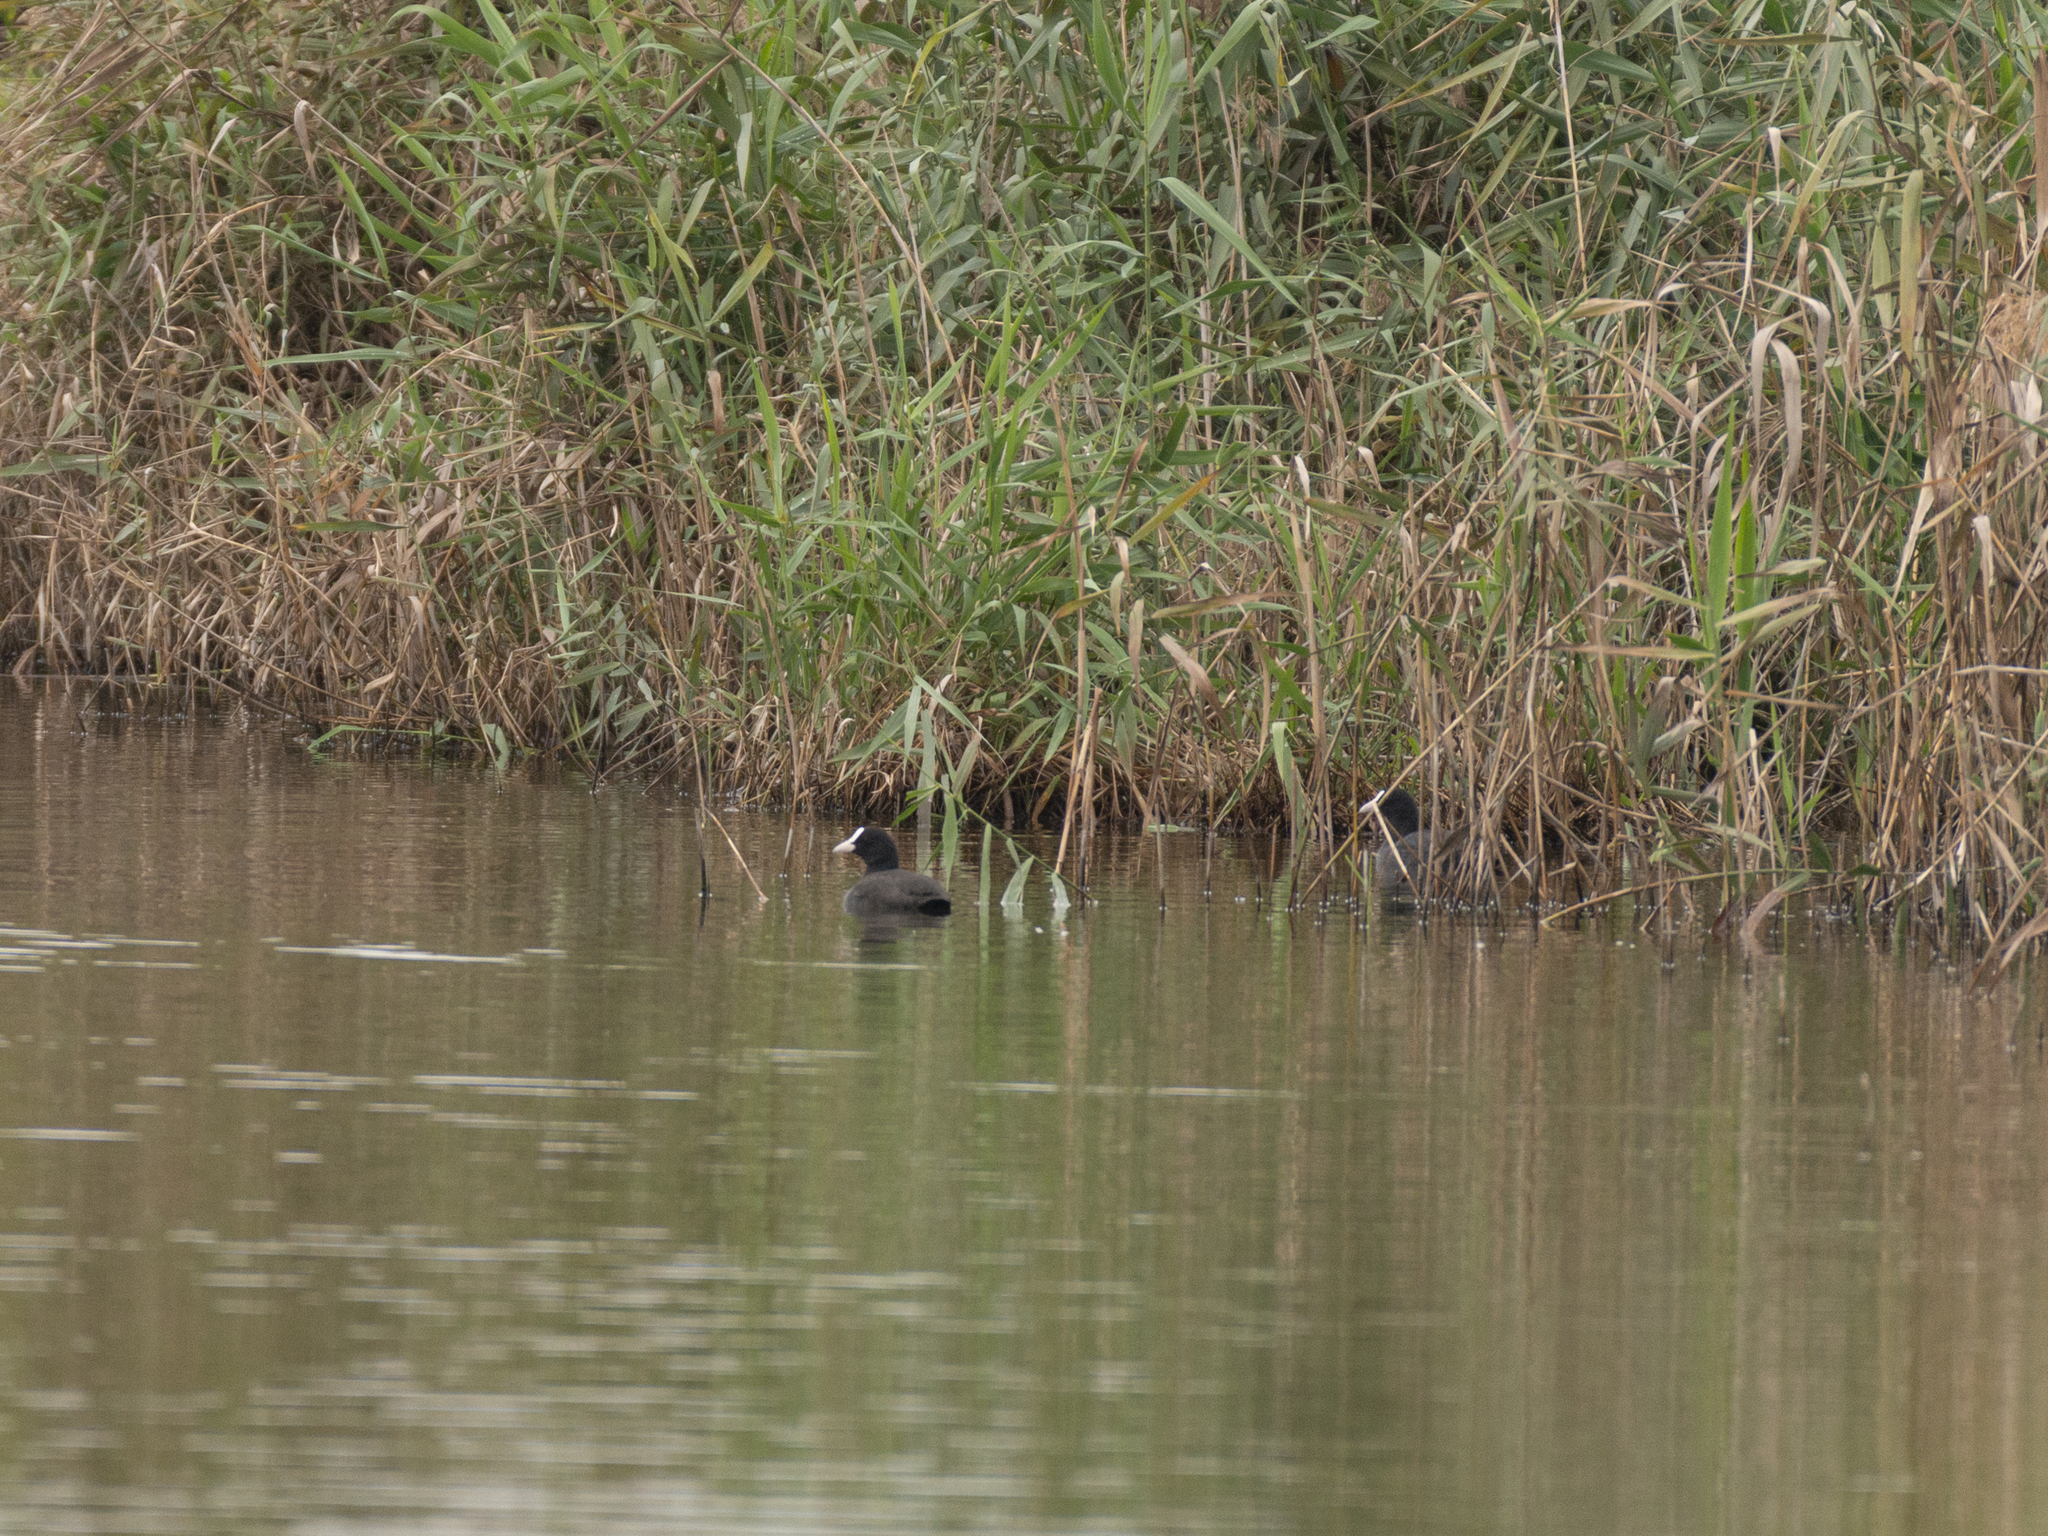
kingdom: Animalia
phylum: Chordata
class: Aves
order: Gruiformes
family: Rallidae
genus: Fulica
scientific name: Fulica atra
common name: Eurasian coot
